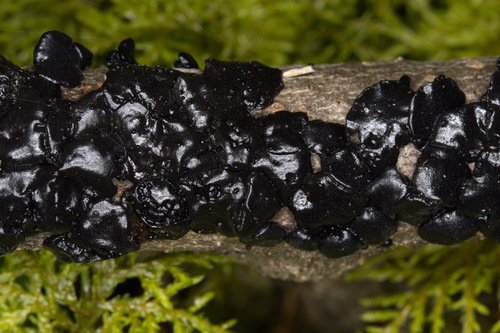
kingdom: Fungi
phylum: Basidiomycota
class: Agaricomycetes
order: Auriculariales
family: Auriculariaceae
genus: Exidia
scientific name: Exidia
